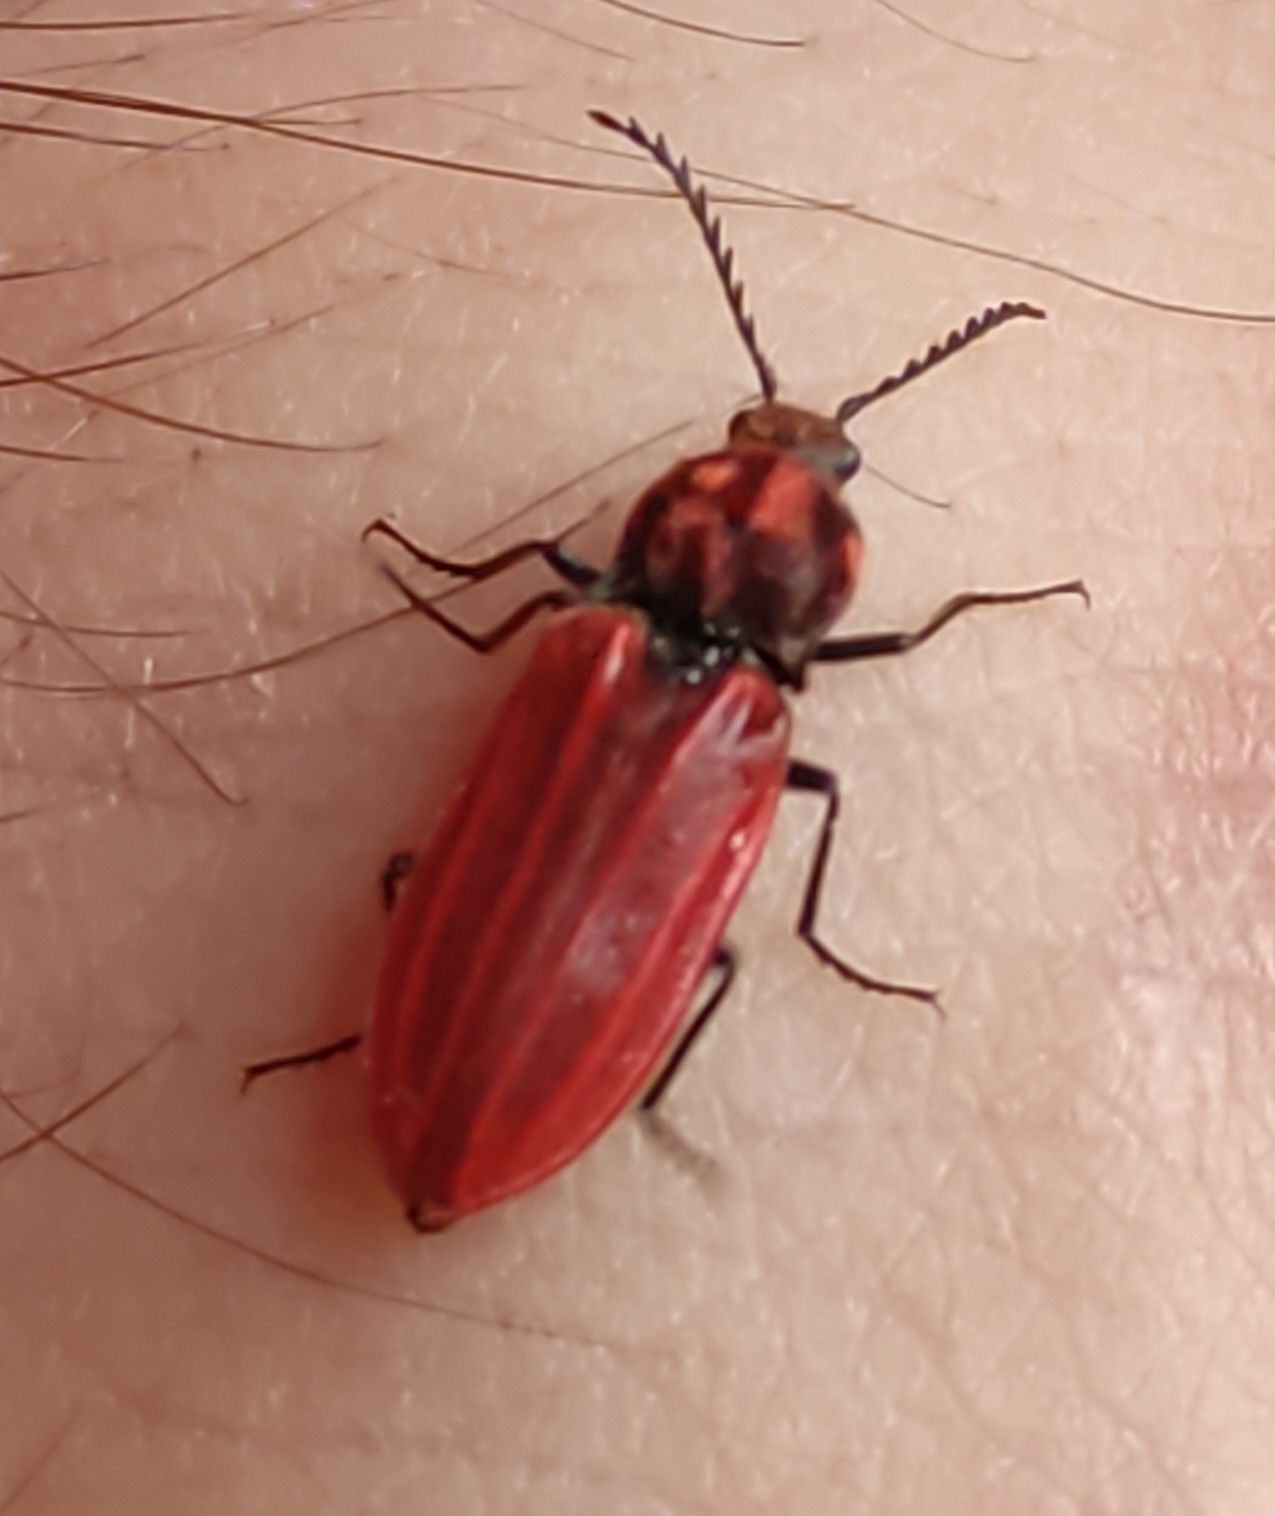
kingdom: Animalia
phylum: Arthropoda
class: Insecta
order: Coleoptera
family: Elateridae
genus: Anostirus
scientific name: Anostirus purpureus
